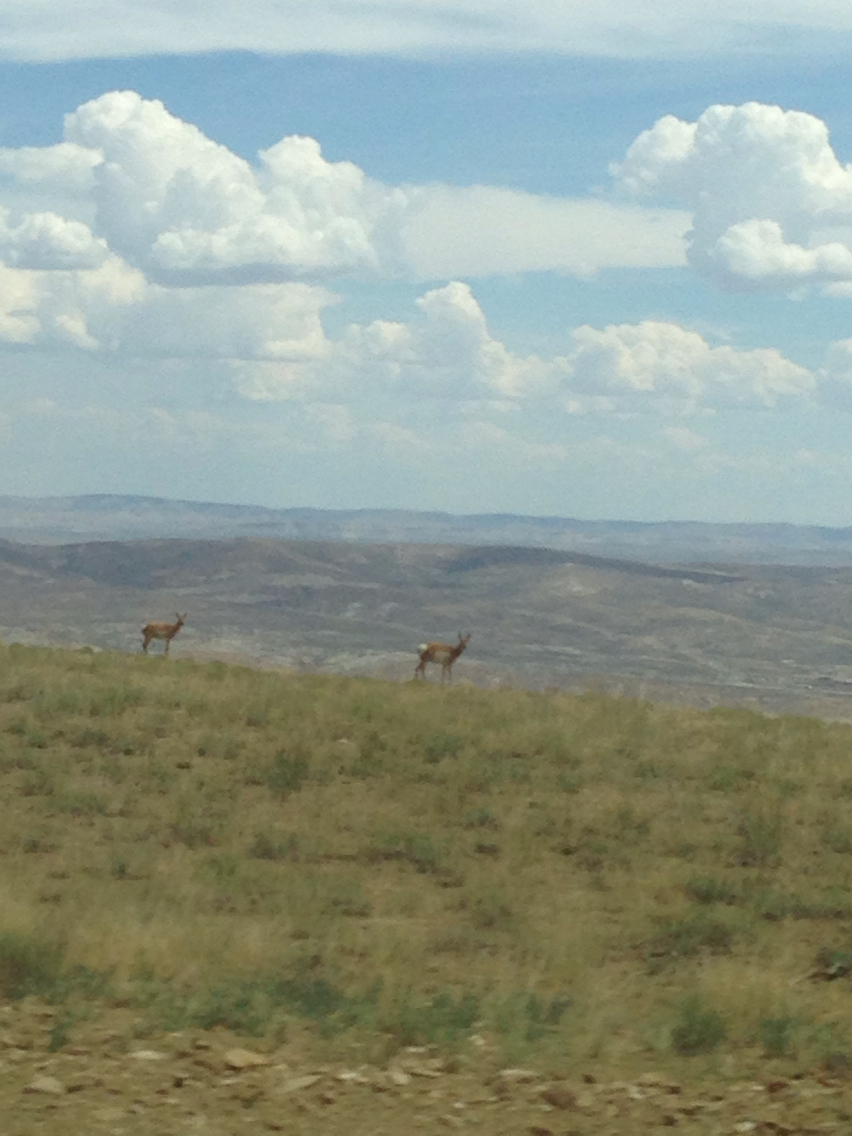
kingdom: Animalia
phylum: Chordata
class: Mammalia
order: Artiodactyla
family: Antilocapridae
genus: Antilocapra
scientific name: Antilocapra americana
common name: Pronghorn
